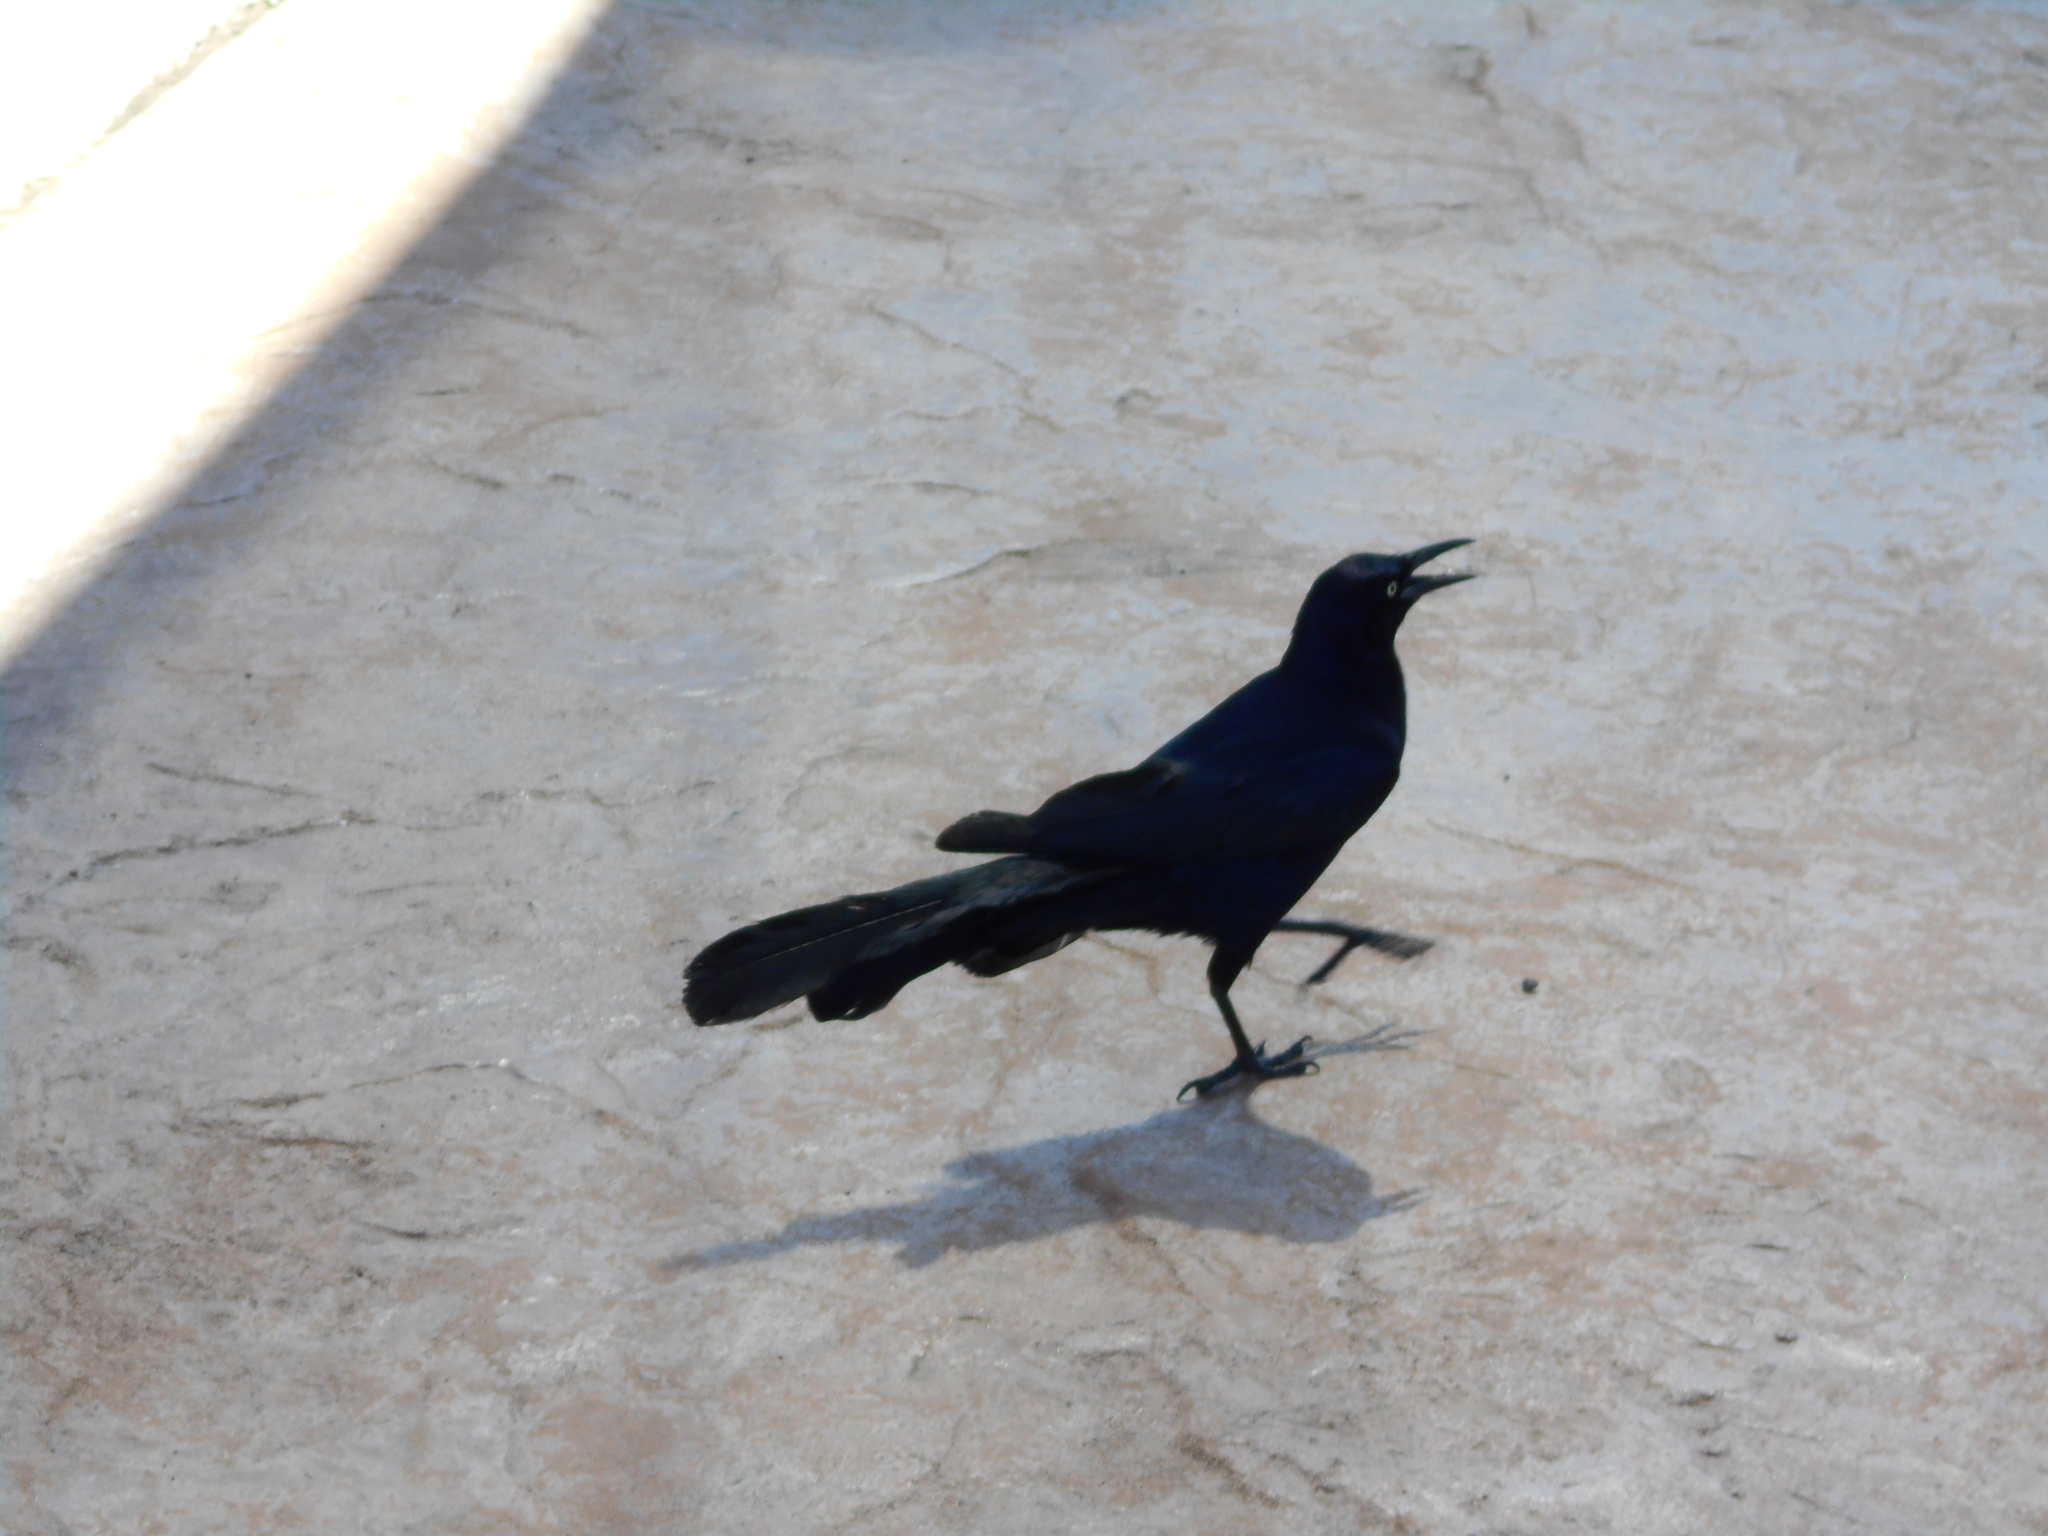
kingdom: Animalia
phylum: Chordata
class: Aves
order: Passeriformes
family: Icteridae
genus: Quiscalus
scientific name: Quiscalus mexicanus
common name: Great-tailed grackle
